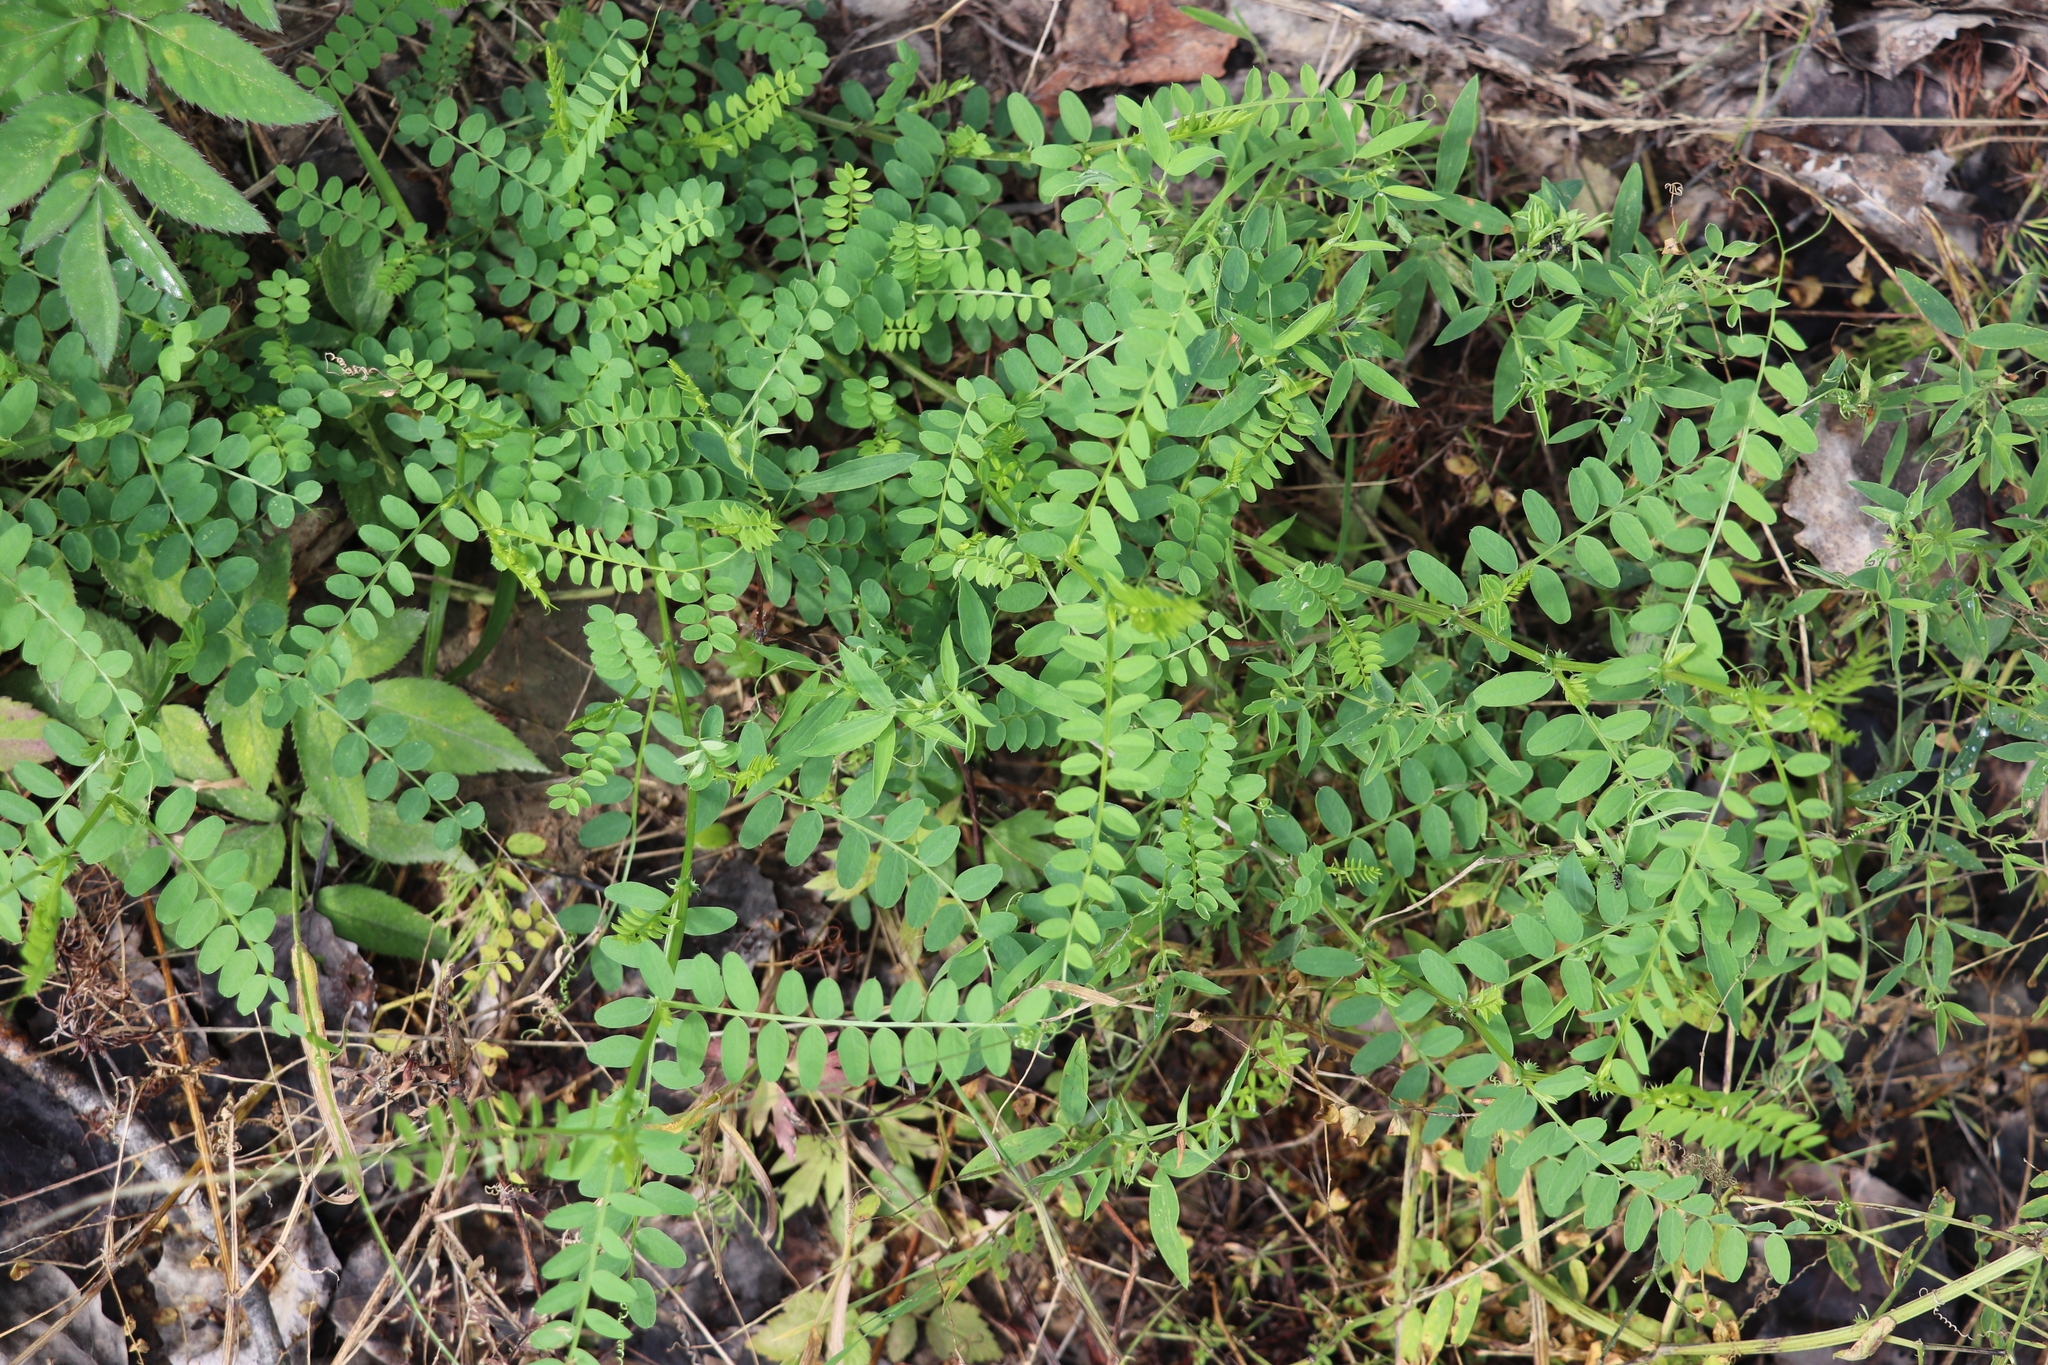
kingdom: Plantae
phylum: Tracheophyta
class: Magnoliopsida
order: Fabales
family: Fabaceae
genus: Vicia
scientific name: Vicia sylvatica
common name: Wood vetch
